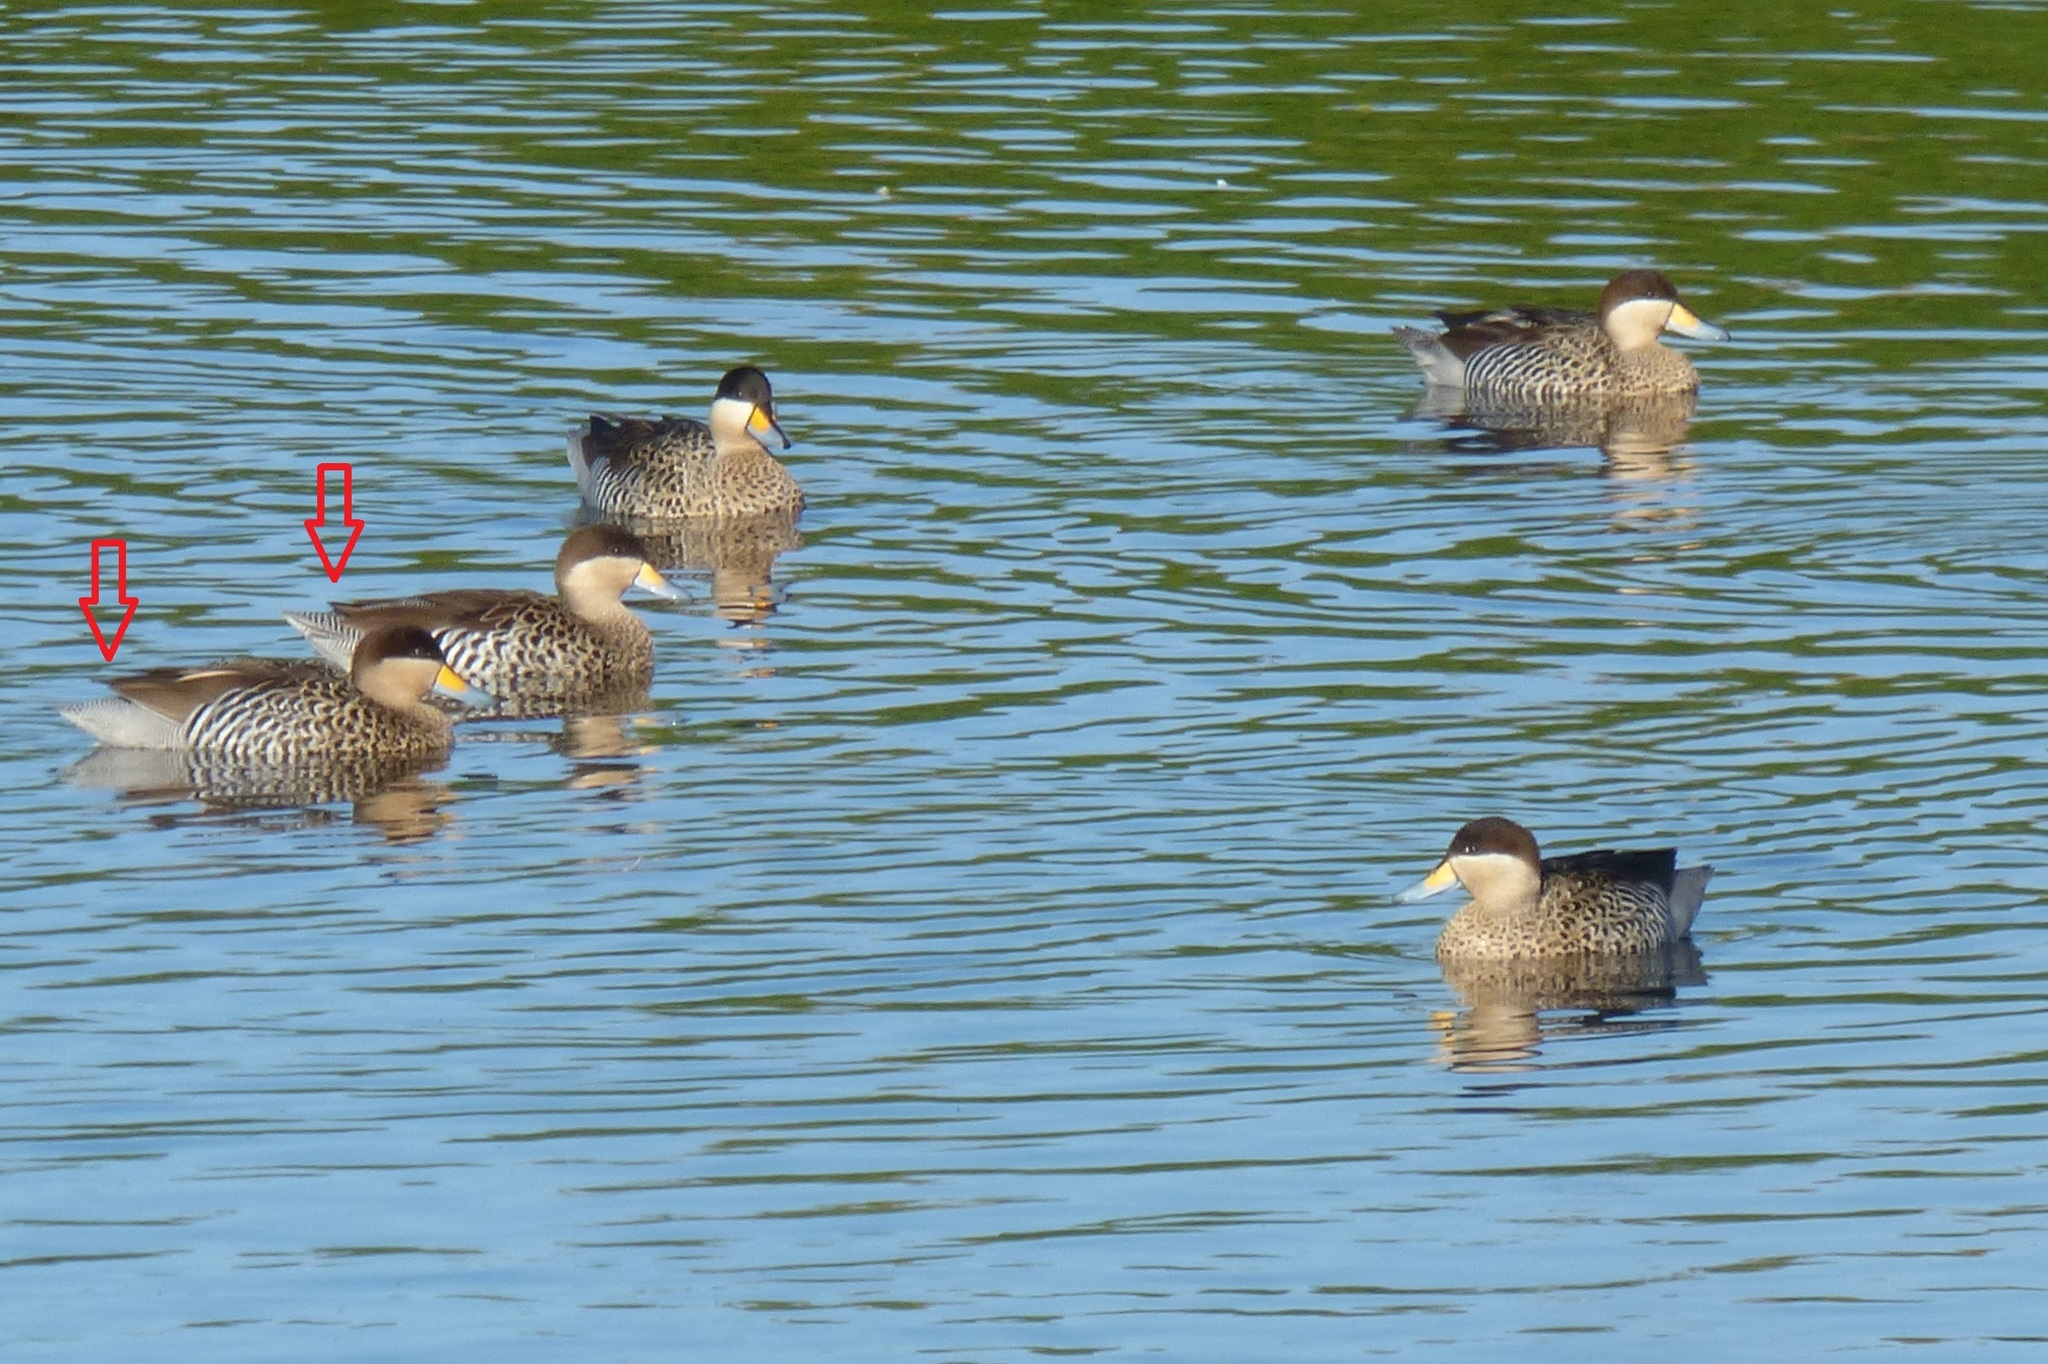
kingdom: Animalia
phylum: Chordata
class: Aves
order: Anseriformes
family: Anatidae
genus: Spatula
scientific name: Spatula versicolor
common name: Silver teal
